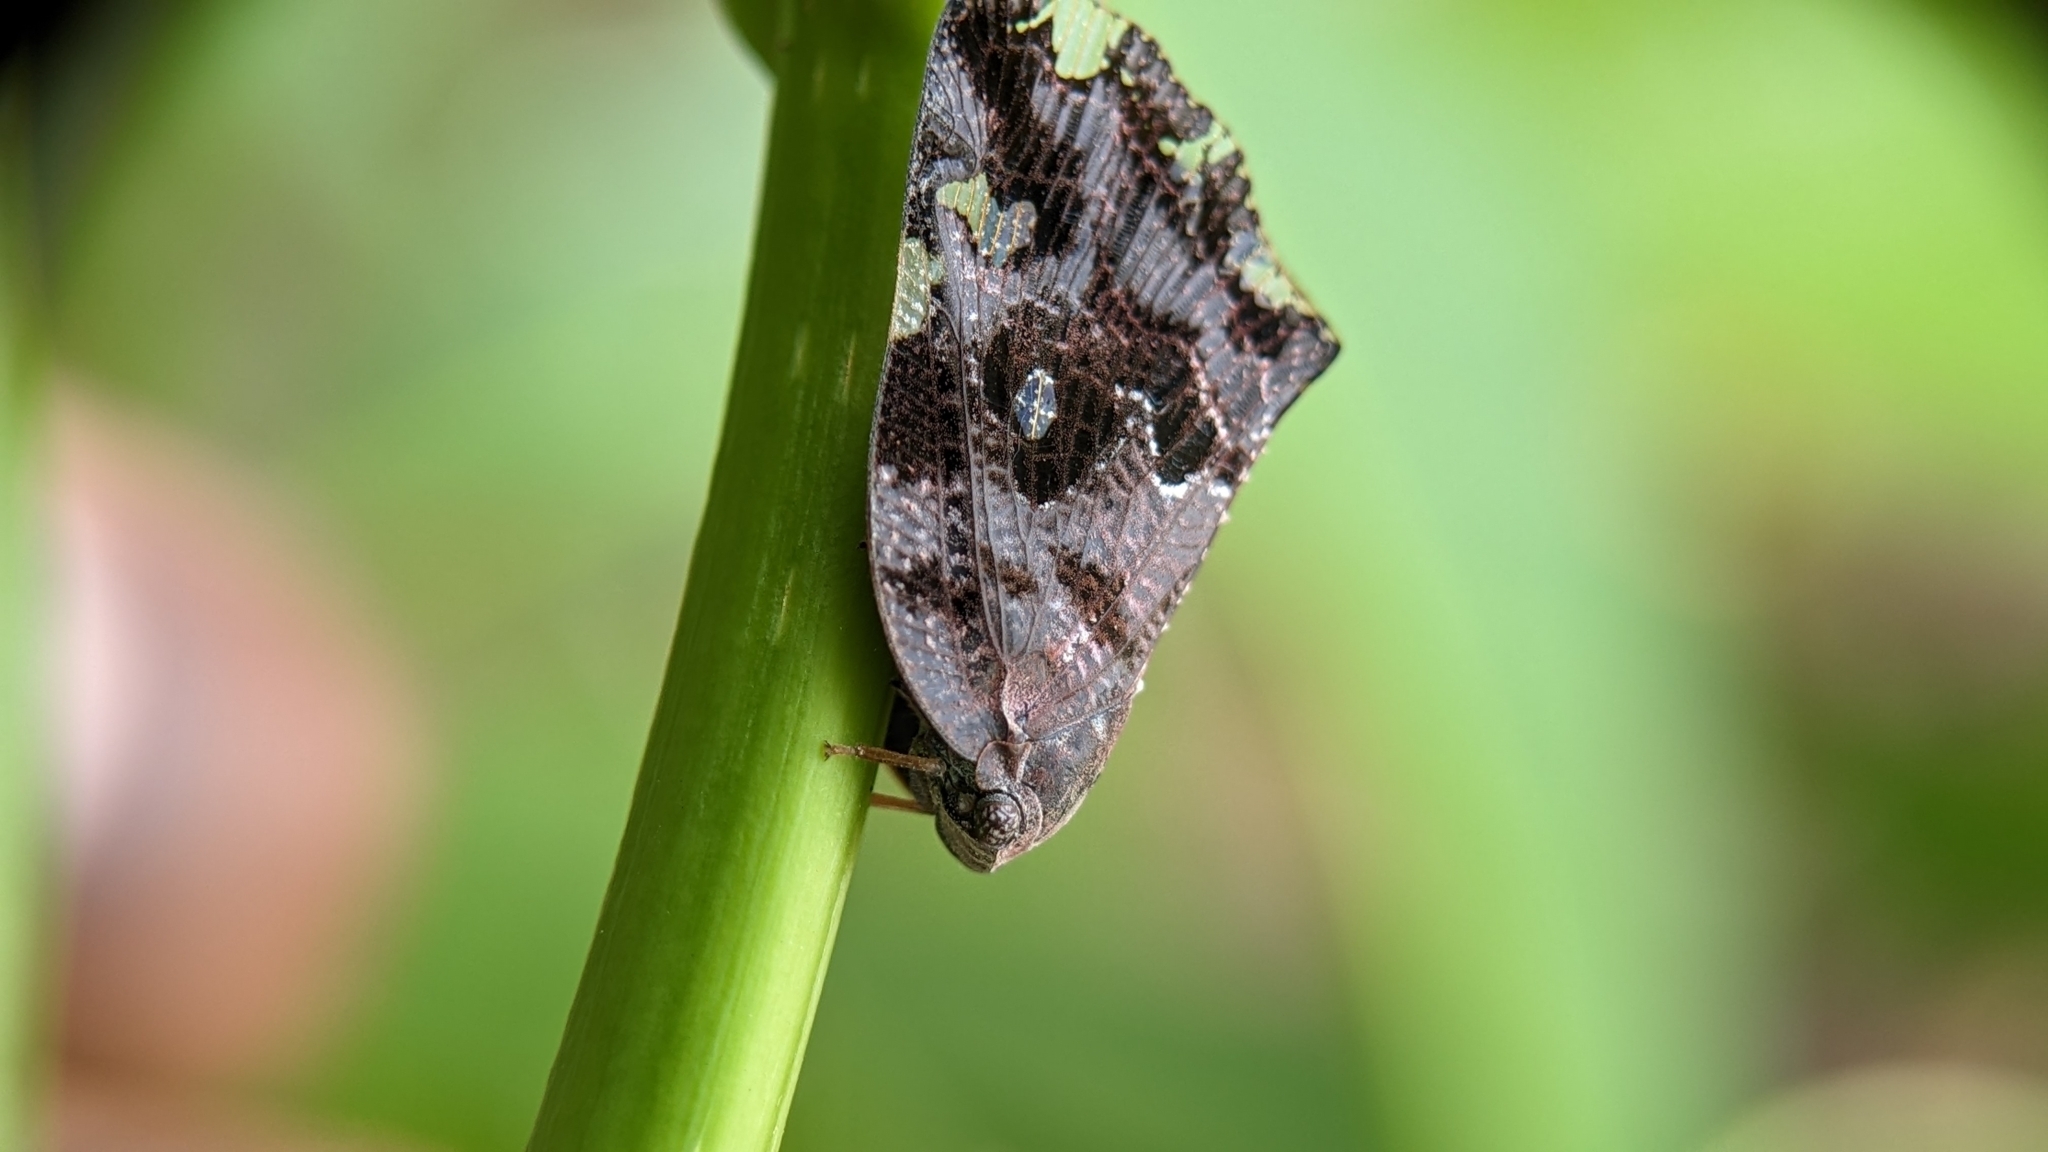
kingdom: Animalia
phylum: Arthropoda
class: Insecta
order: Hemiptera
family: Ricaniidae
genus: Ricania
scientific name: Ricania speculum
